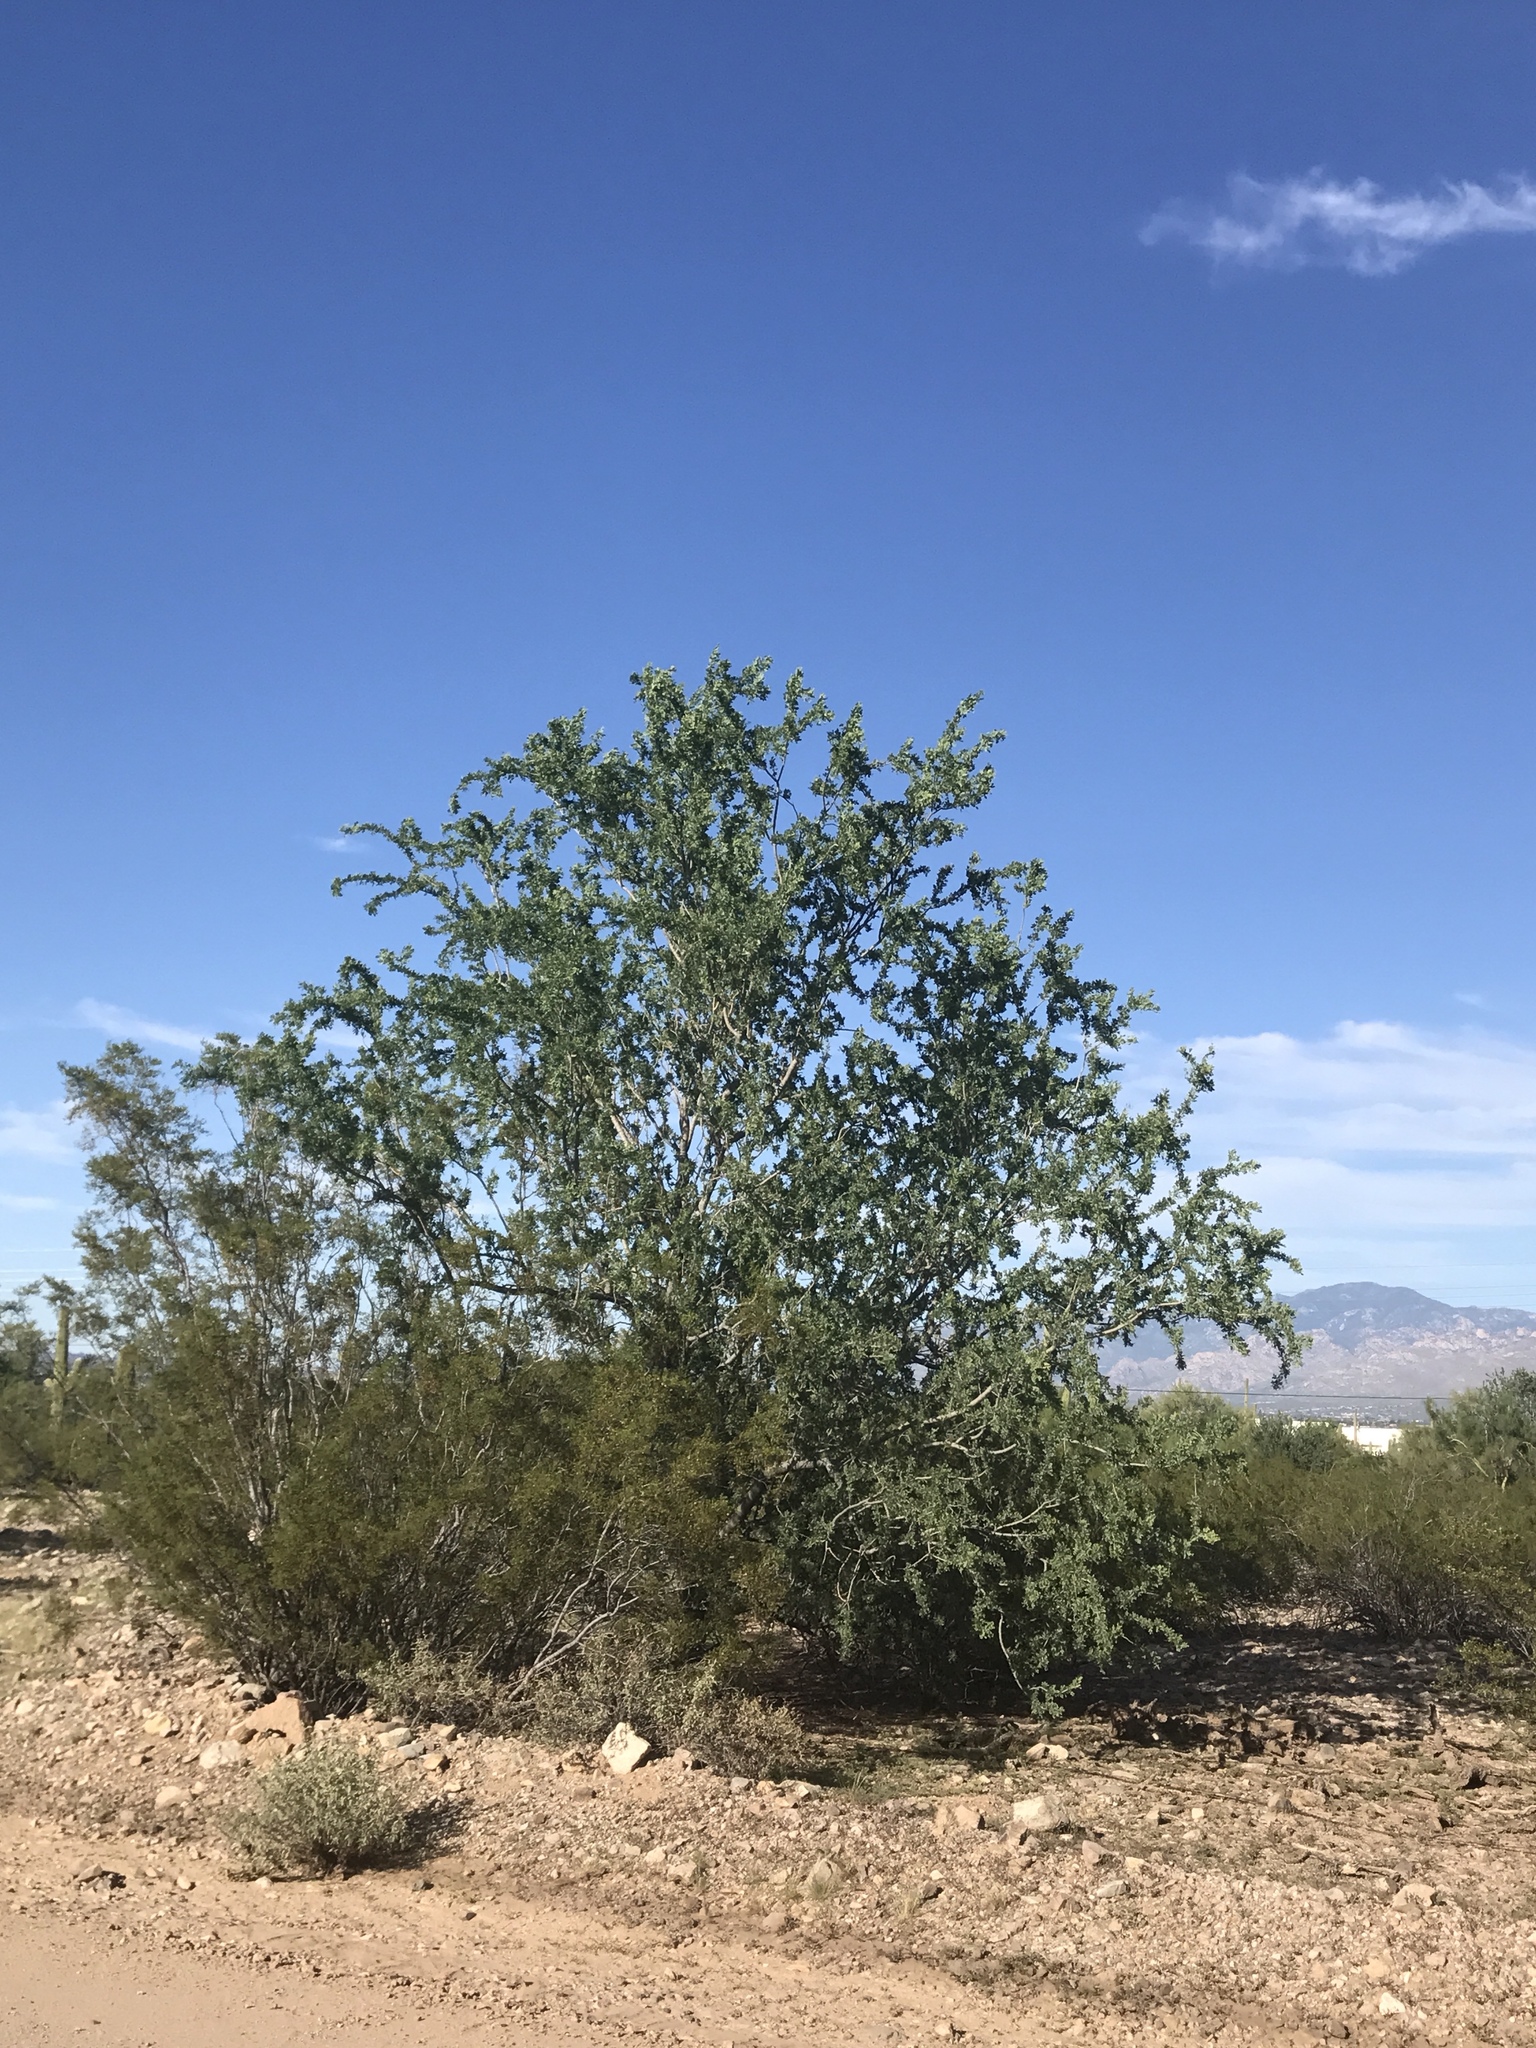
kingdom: Plantae
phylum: Tracheophyta
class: Magnoliopsida
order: Fabales
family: Fabaceae
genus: Olneya
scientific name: Olneya tesota
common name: Desert ironwood
